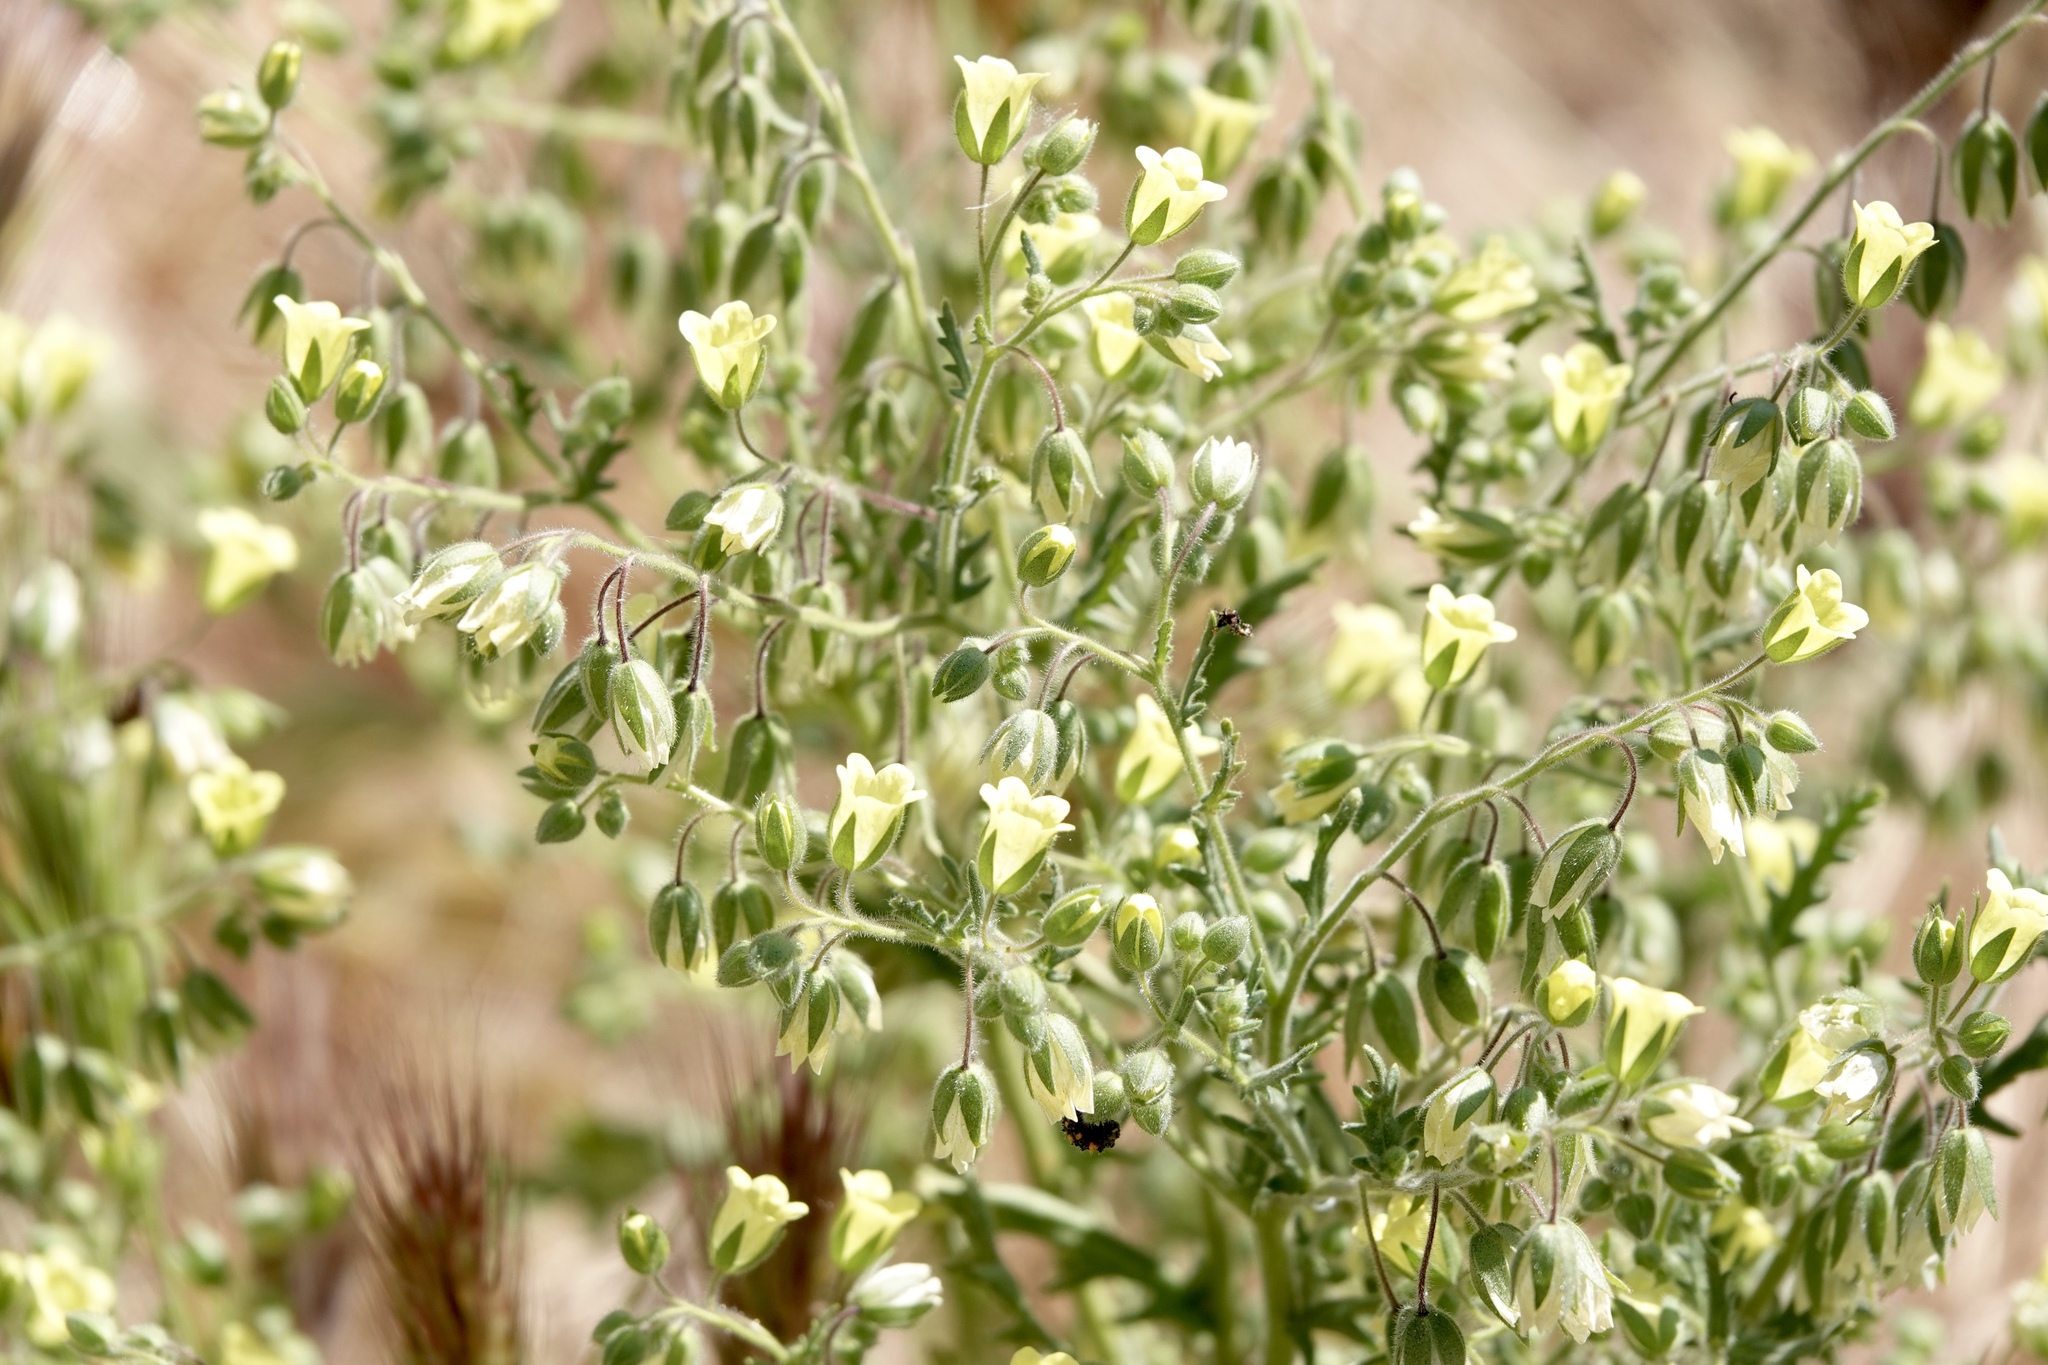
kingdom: Plantae
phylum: Tracheophyta
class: Magnoliopsida
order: Boraginales
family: Hydrophyllaceae
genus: Emmenanthe
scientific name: Emmenanthe penduliflora
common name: Whispering-bells
